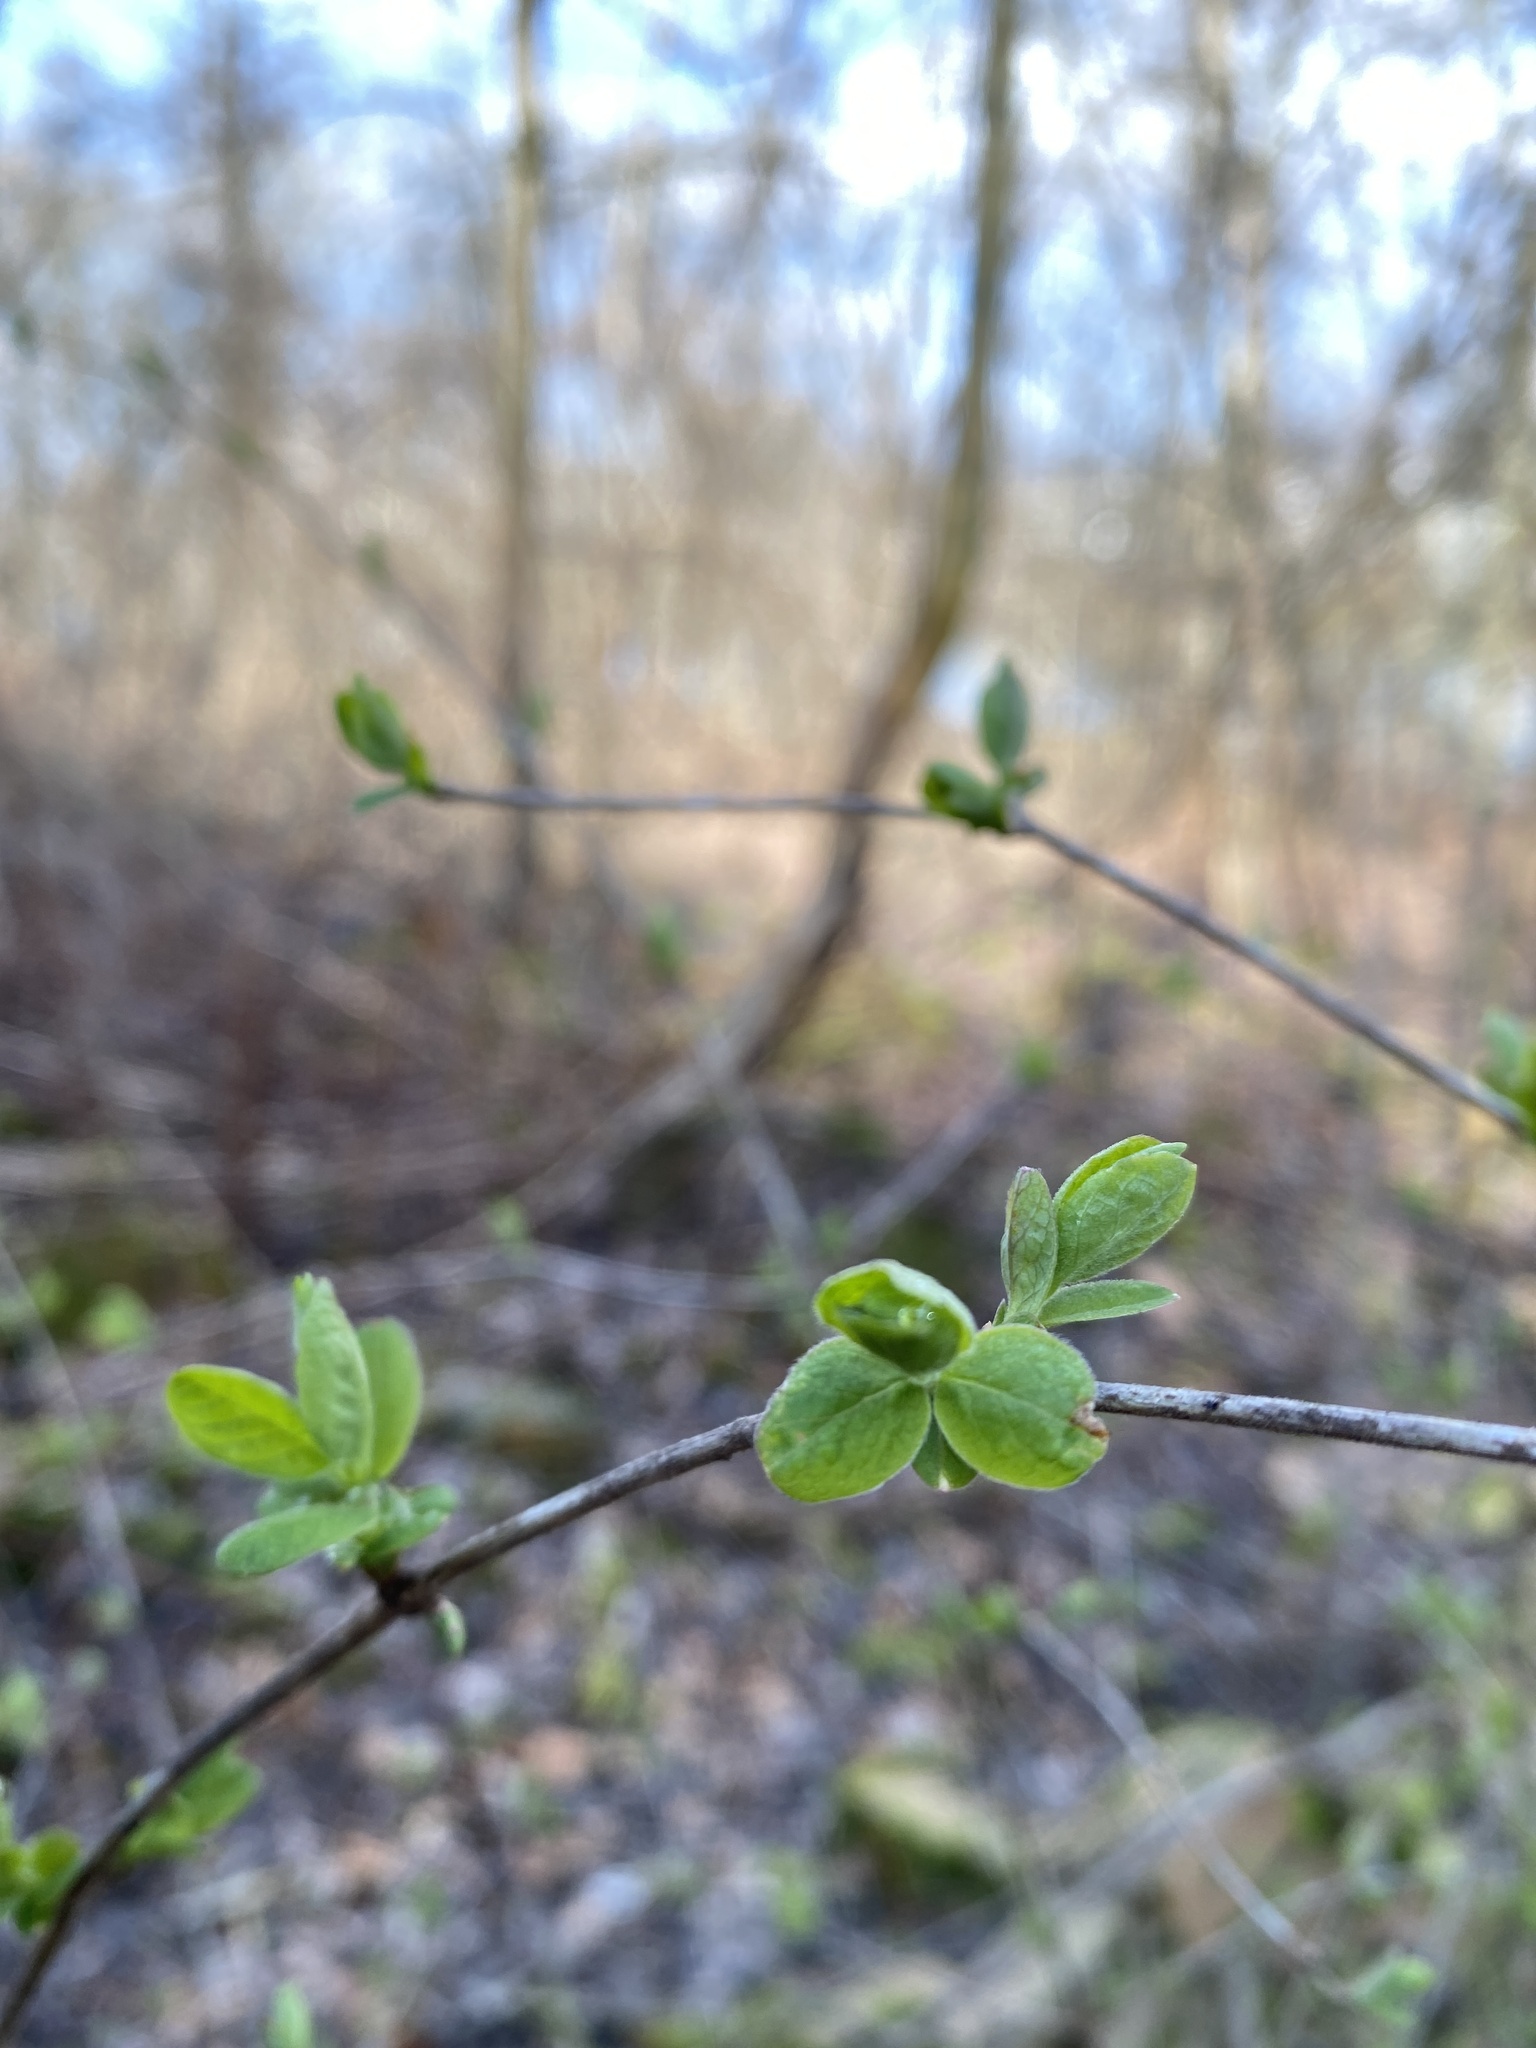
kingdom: Plantae
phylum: Tracheophyta
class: Magnoliopsida
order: Dipsacales
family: Caprifoliaceae
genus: Lonicera
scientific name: Lonicera morrowii
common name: Morrow's honeysuckle
